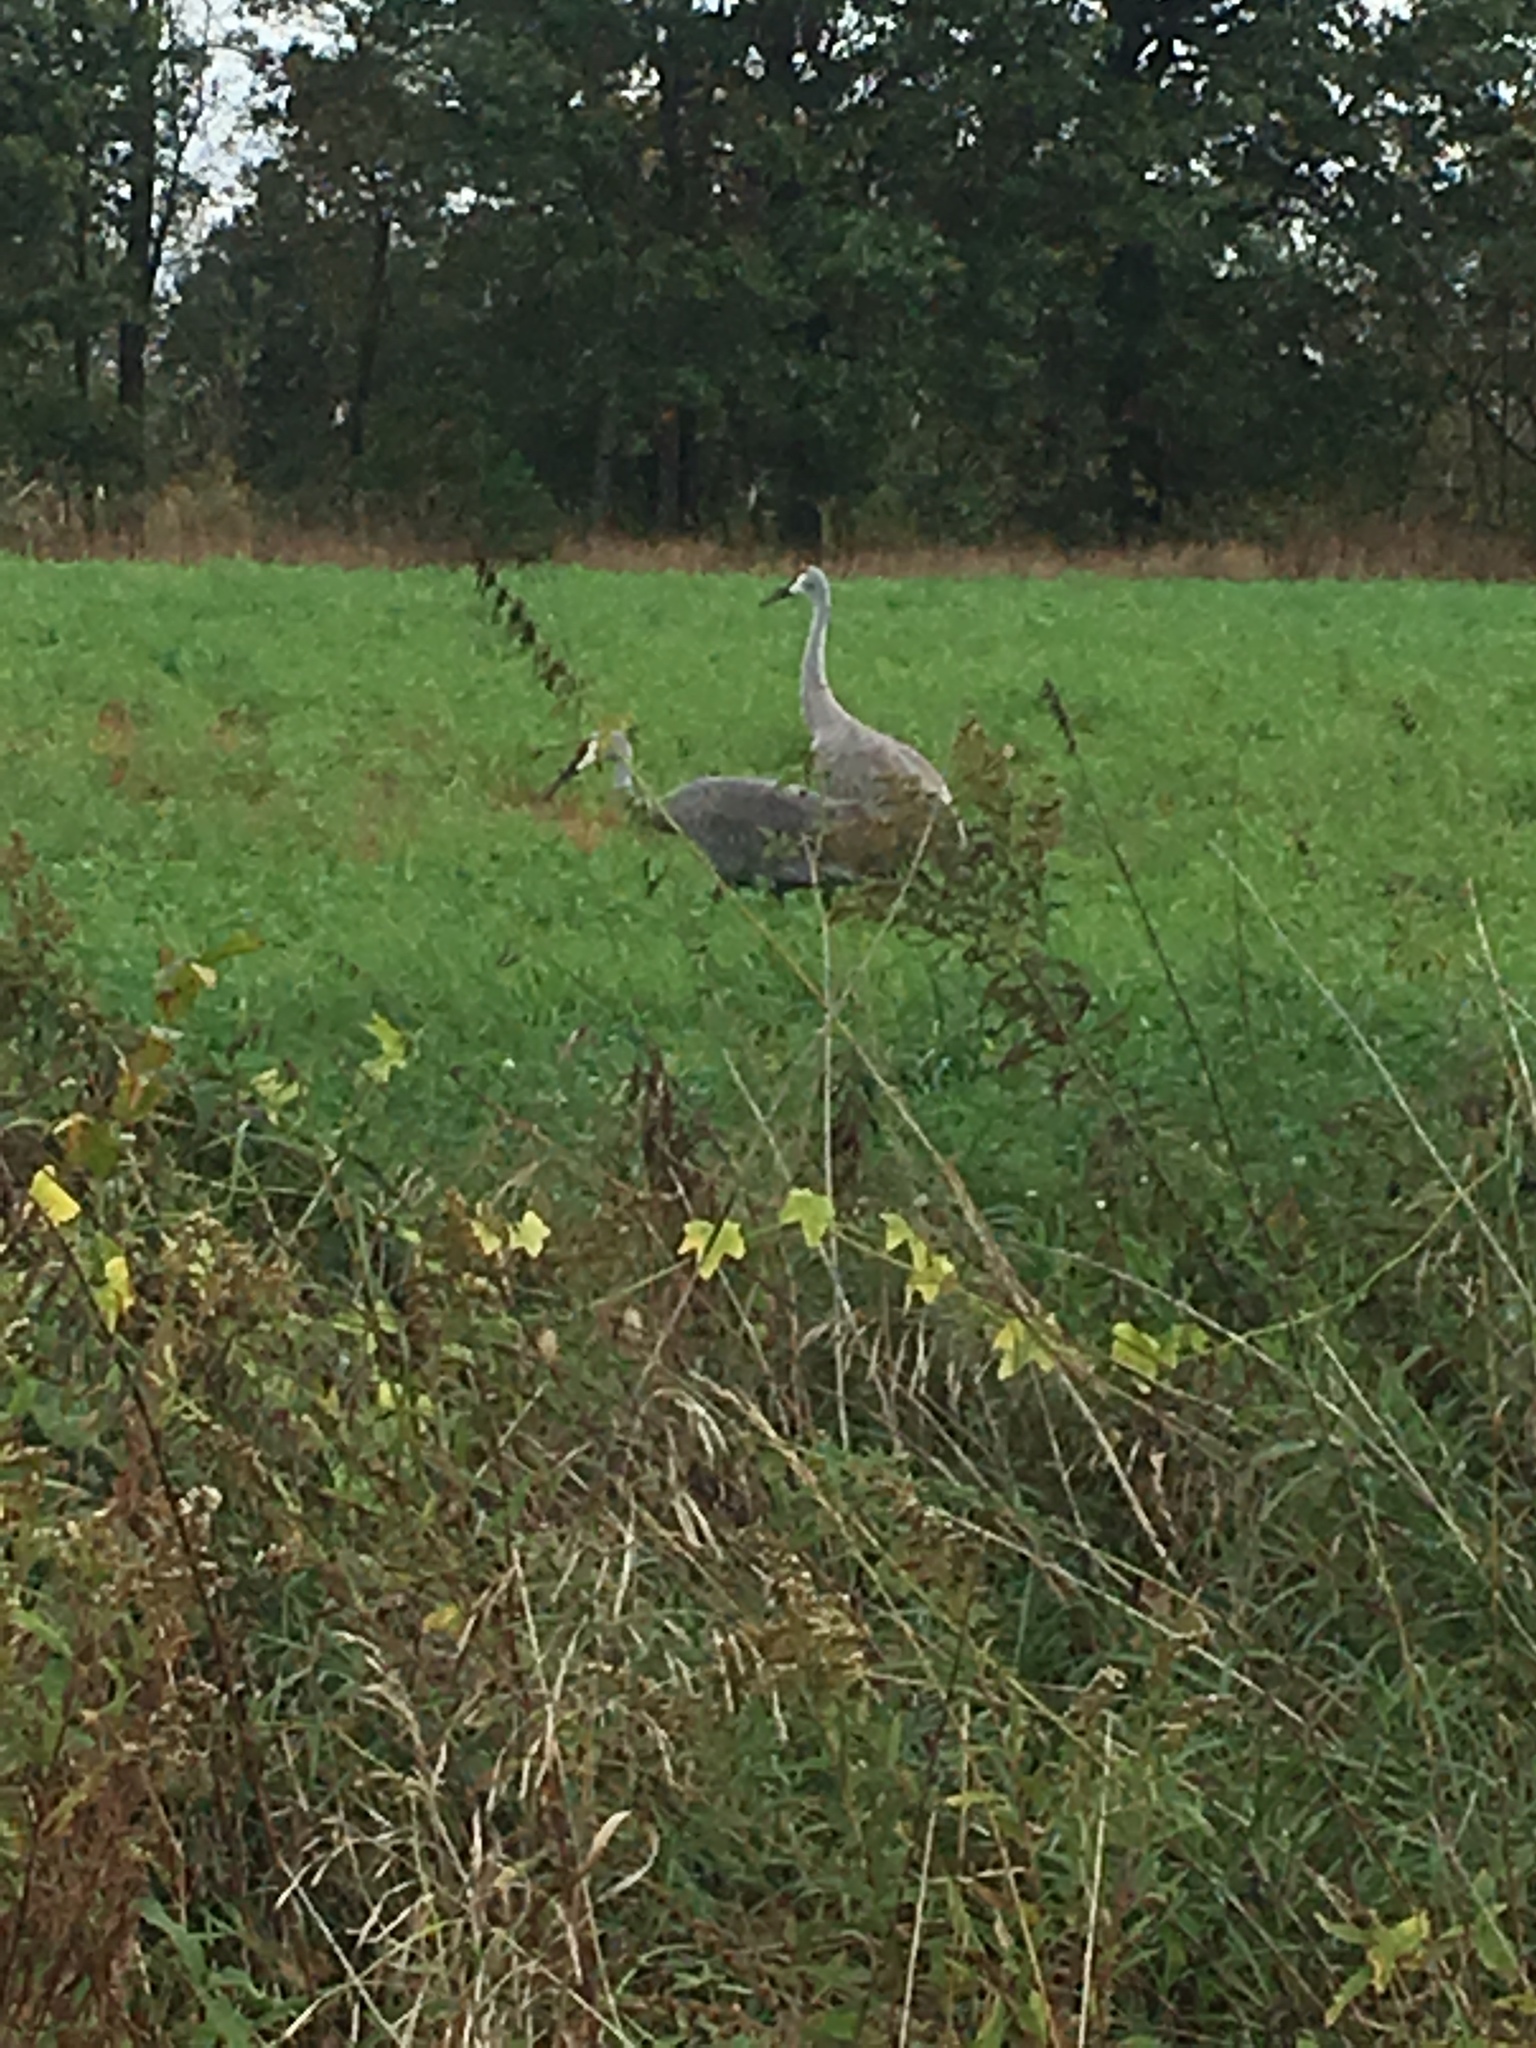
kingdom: Animalia
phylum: Chordata
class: Aves
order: Gruiformes
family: Gruidae
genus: Grus
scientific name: Grus canadensis
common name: Sandhill crane
